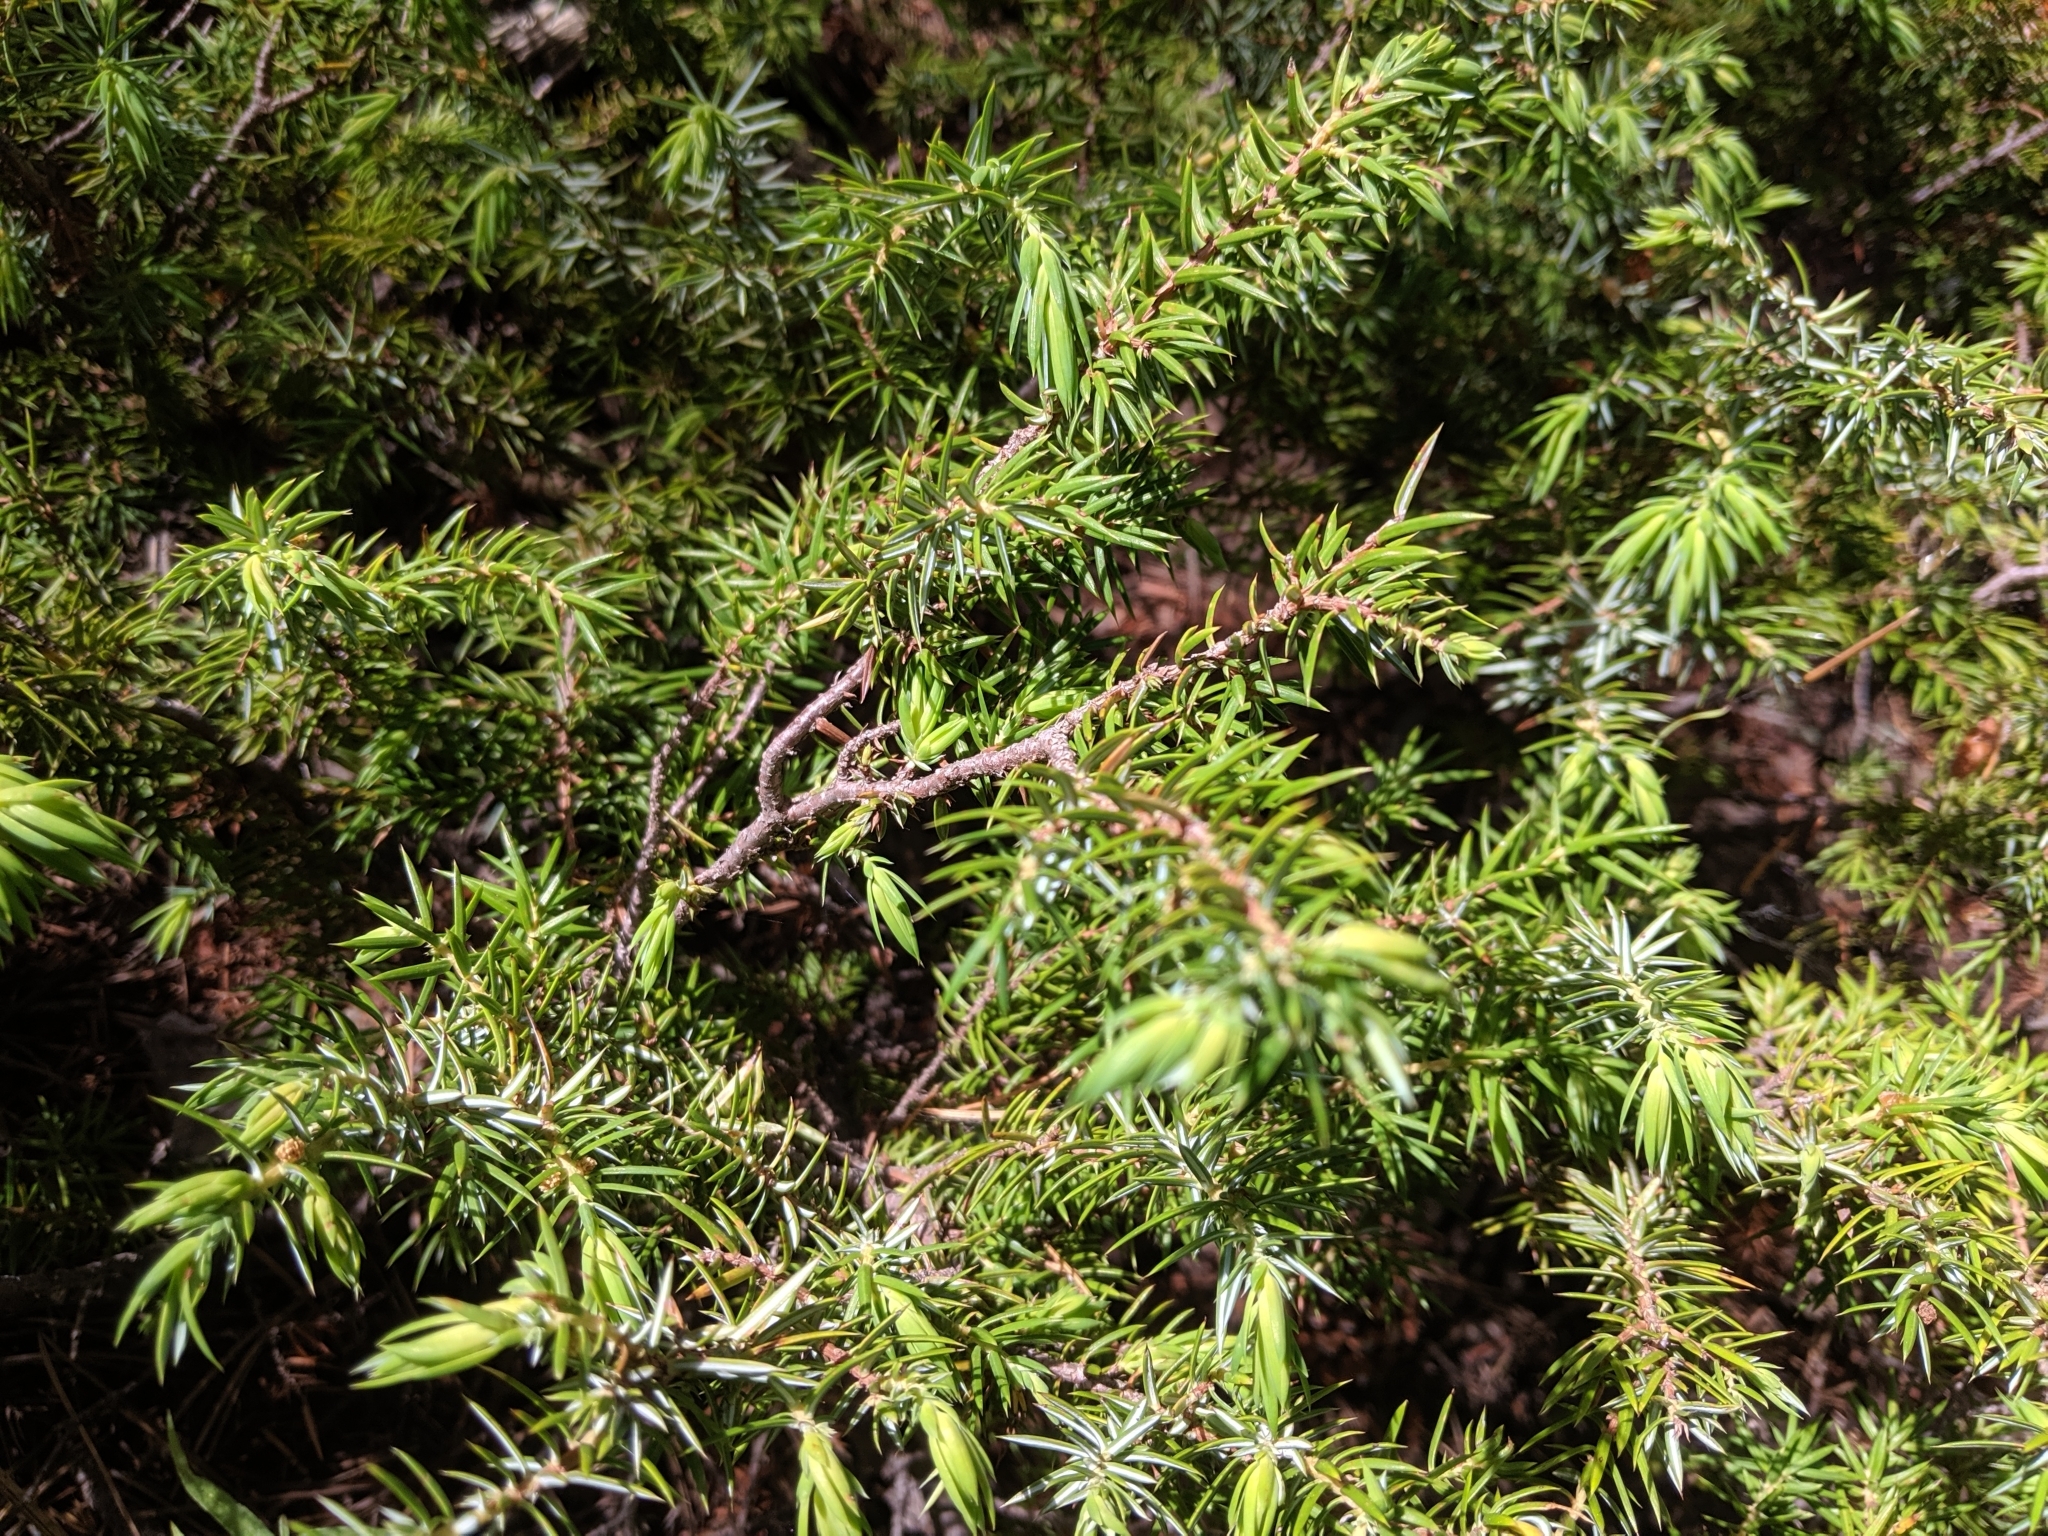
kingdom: Plantae
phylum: Tracheophyta
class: Pinopsida
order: Pinales
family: Cupressaceae
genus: Juniperus
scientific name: Juniperus communis
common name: Common juniper
